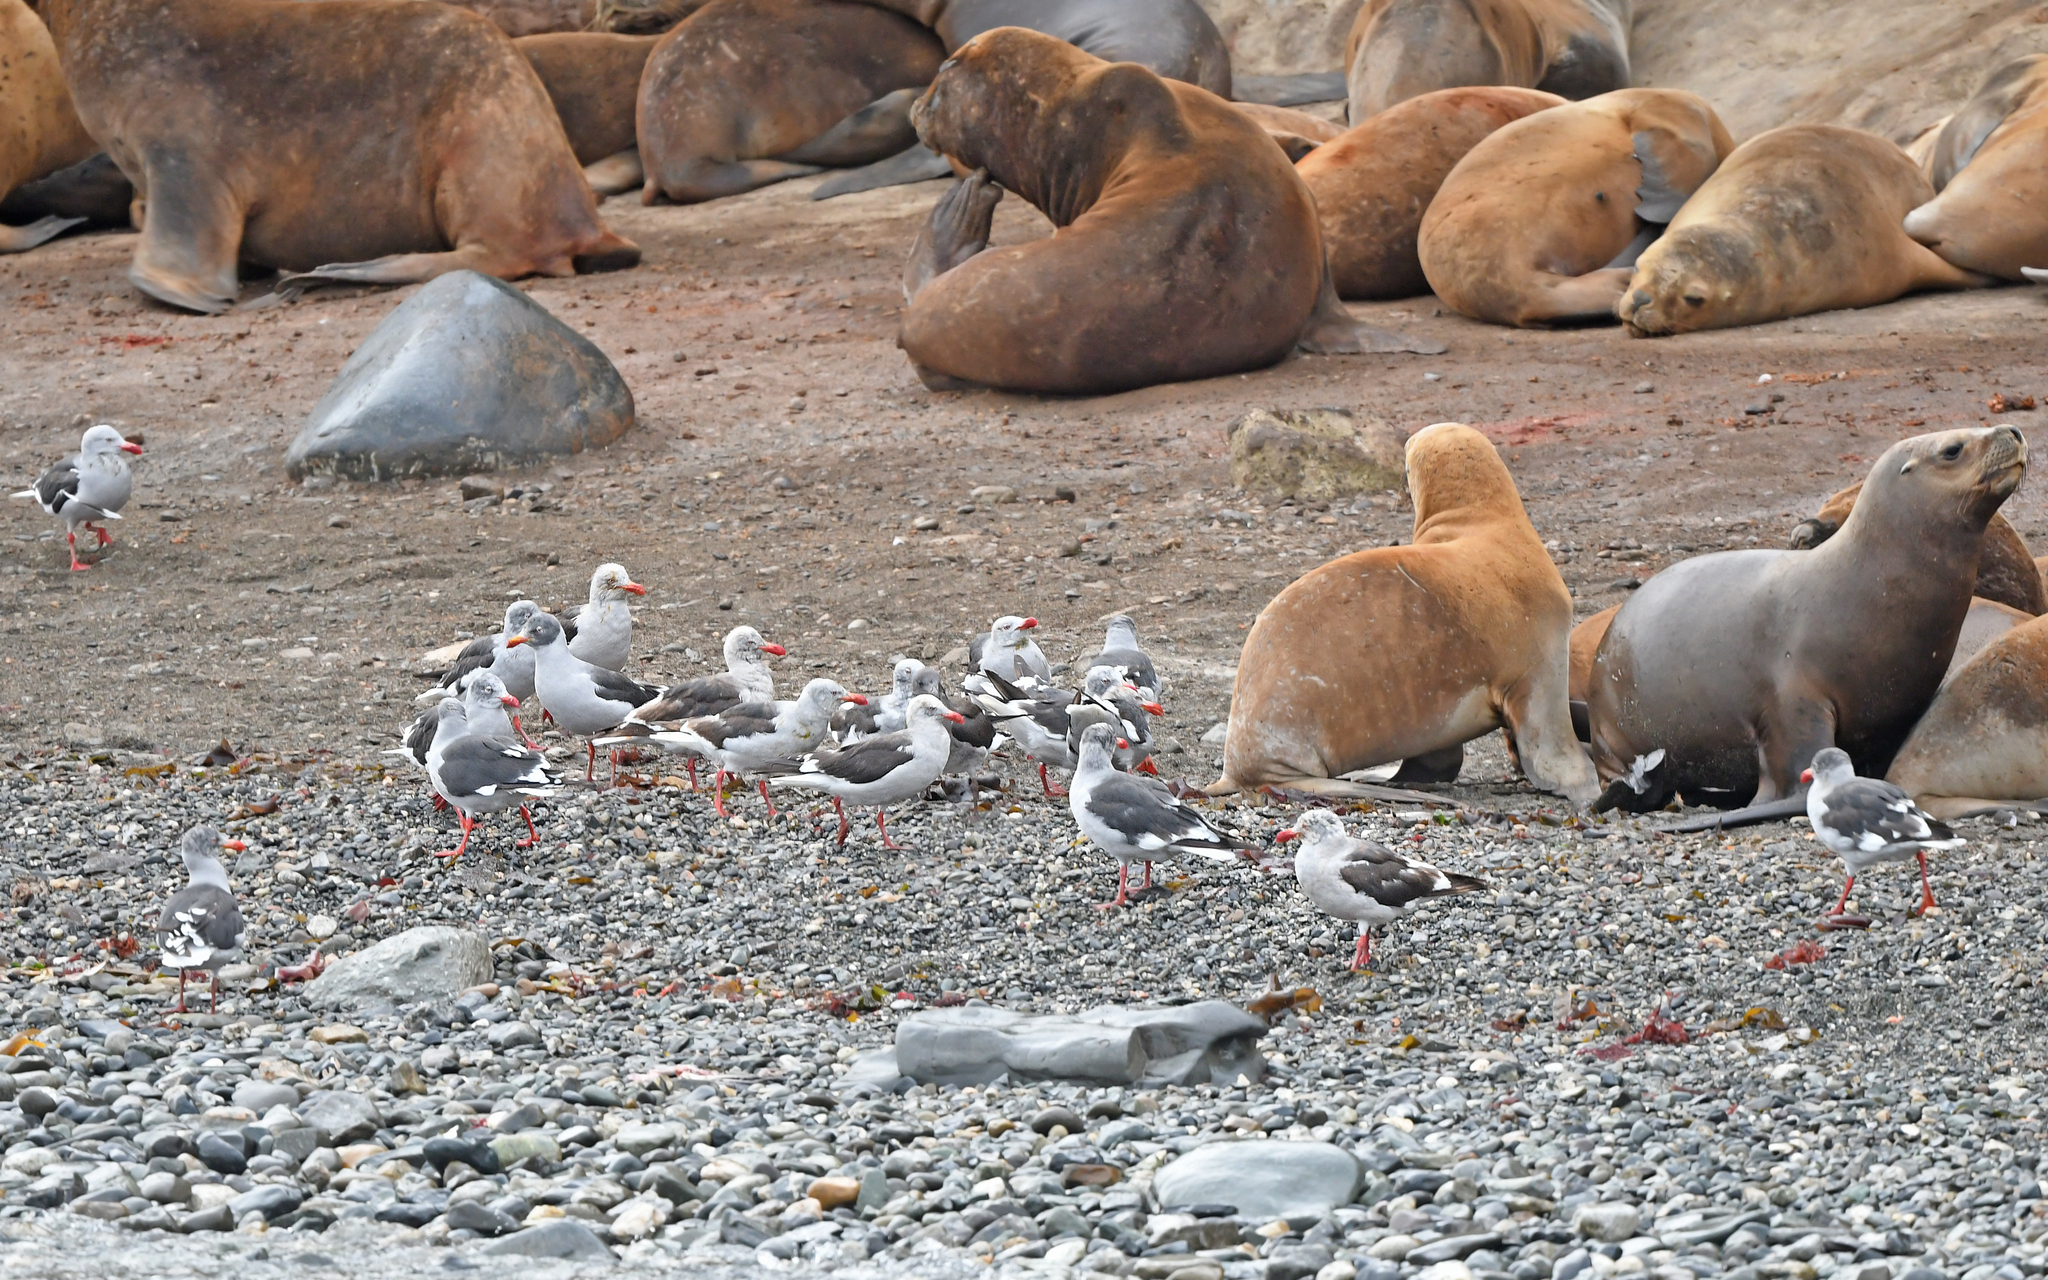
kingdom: Animalia
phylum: Chordata
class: Aves
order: Charadriiformes
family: Laridae
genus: Leucophaeus
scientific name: Leucophaeus scoresbii
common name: Dolphin gull
